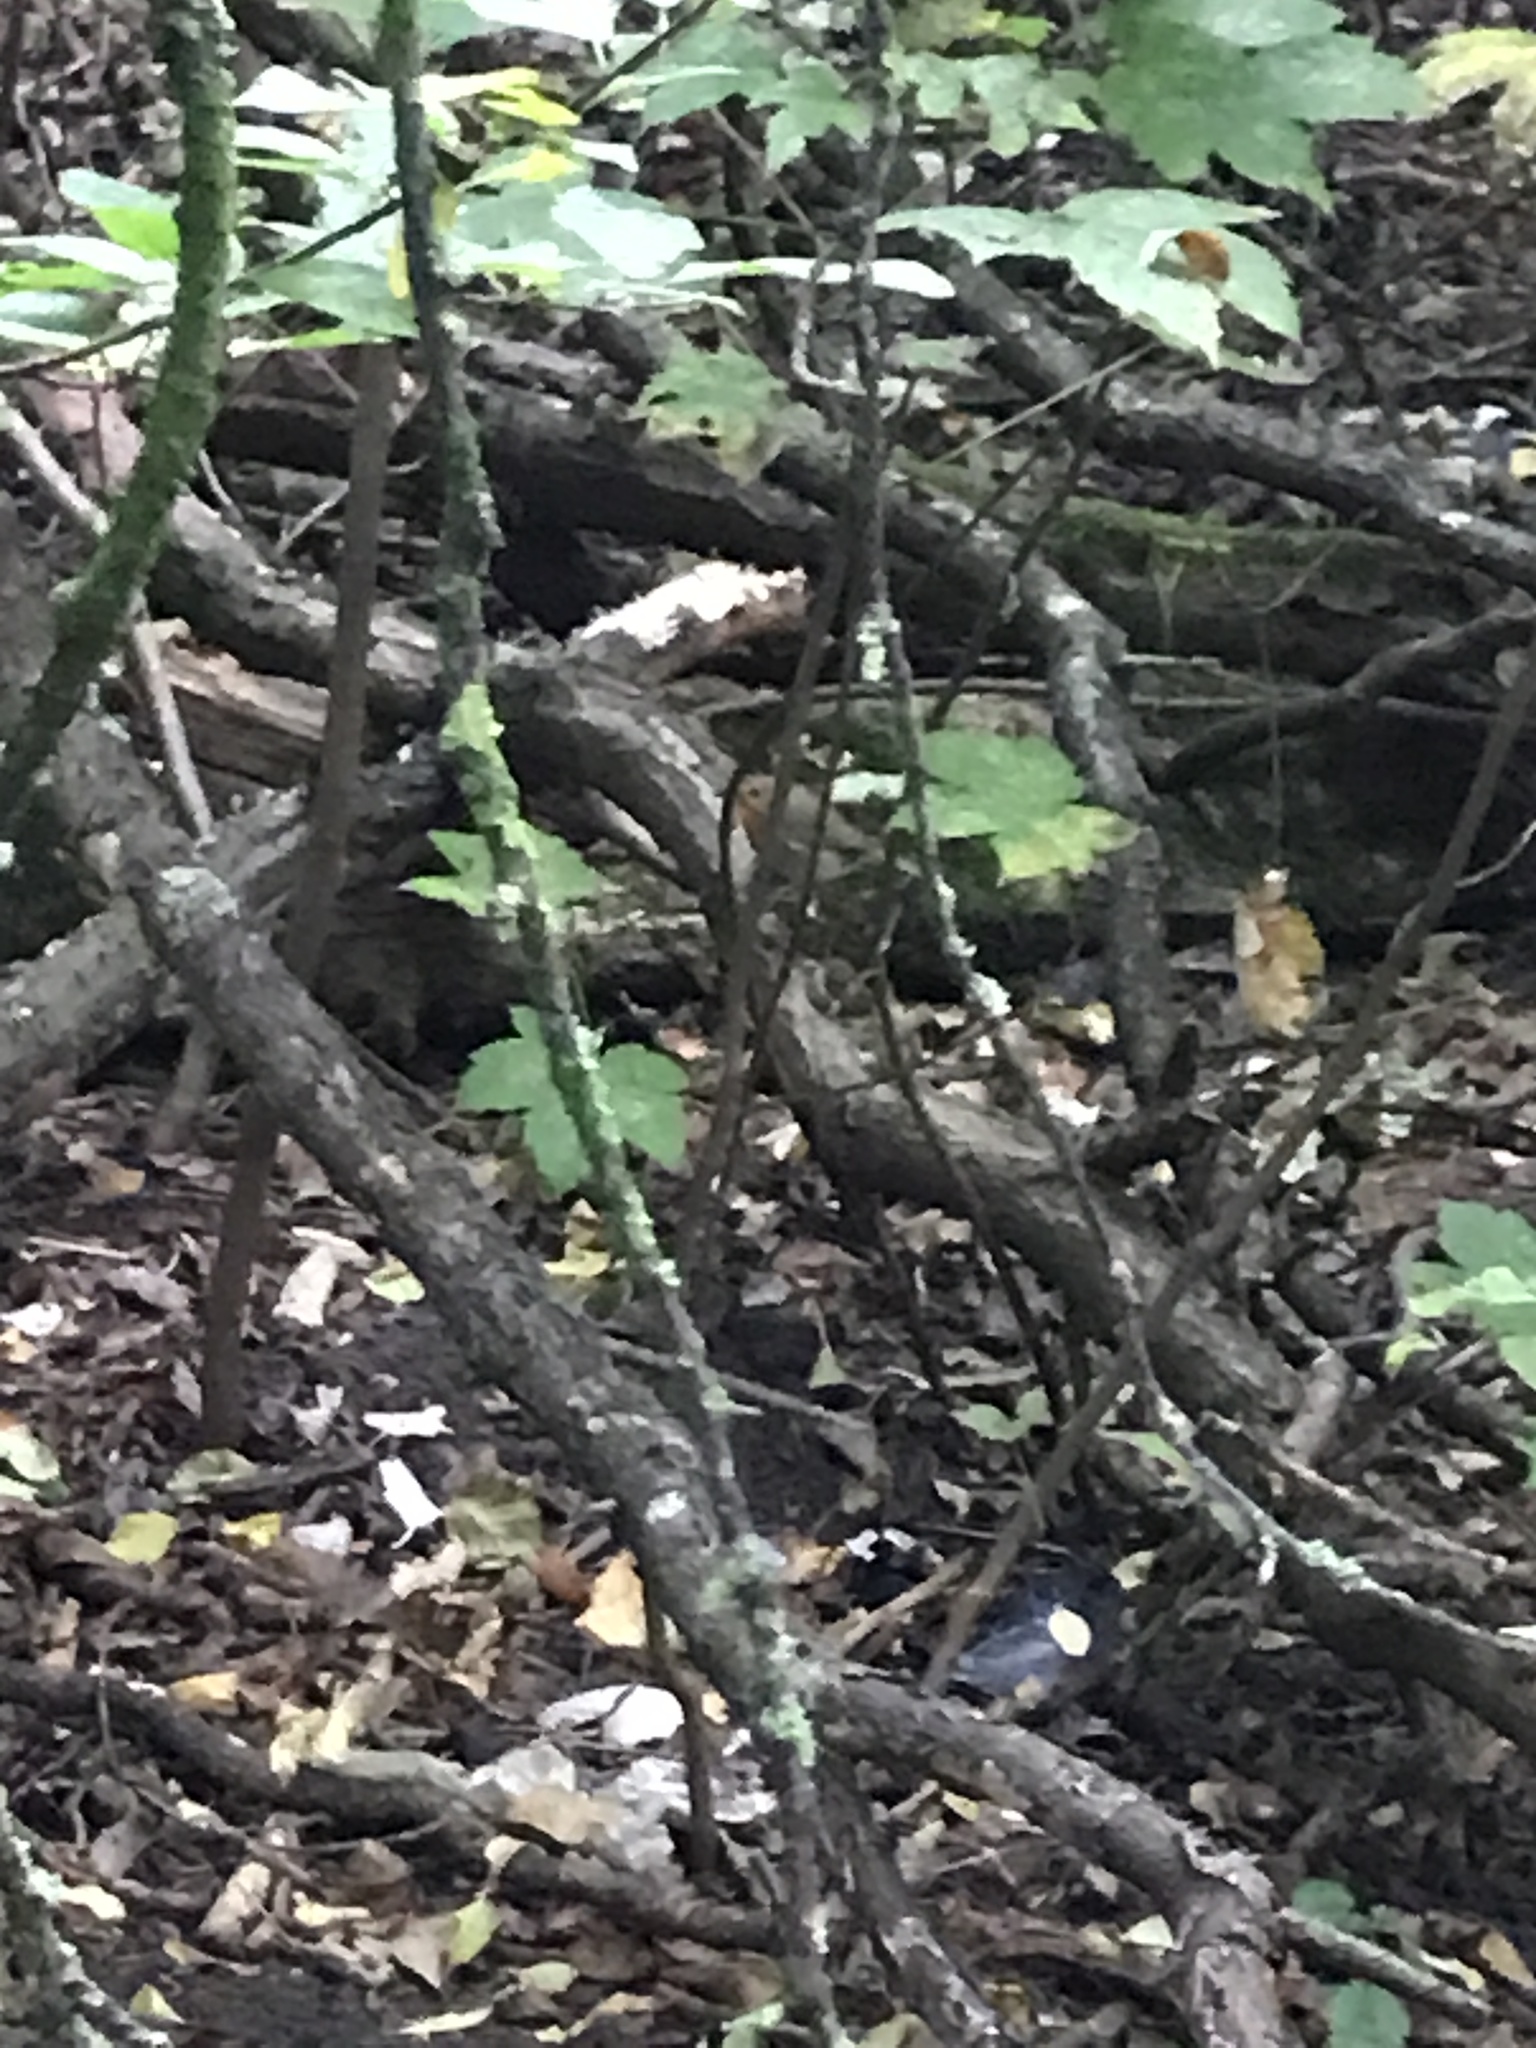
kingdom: Animalia
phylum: Chordata
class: Aves
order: Passeriformes
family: Muscicapidae
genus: Erithacus
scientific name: Erithacus rubecula
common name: European robin
